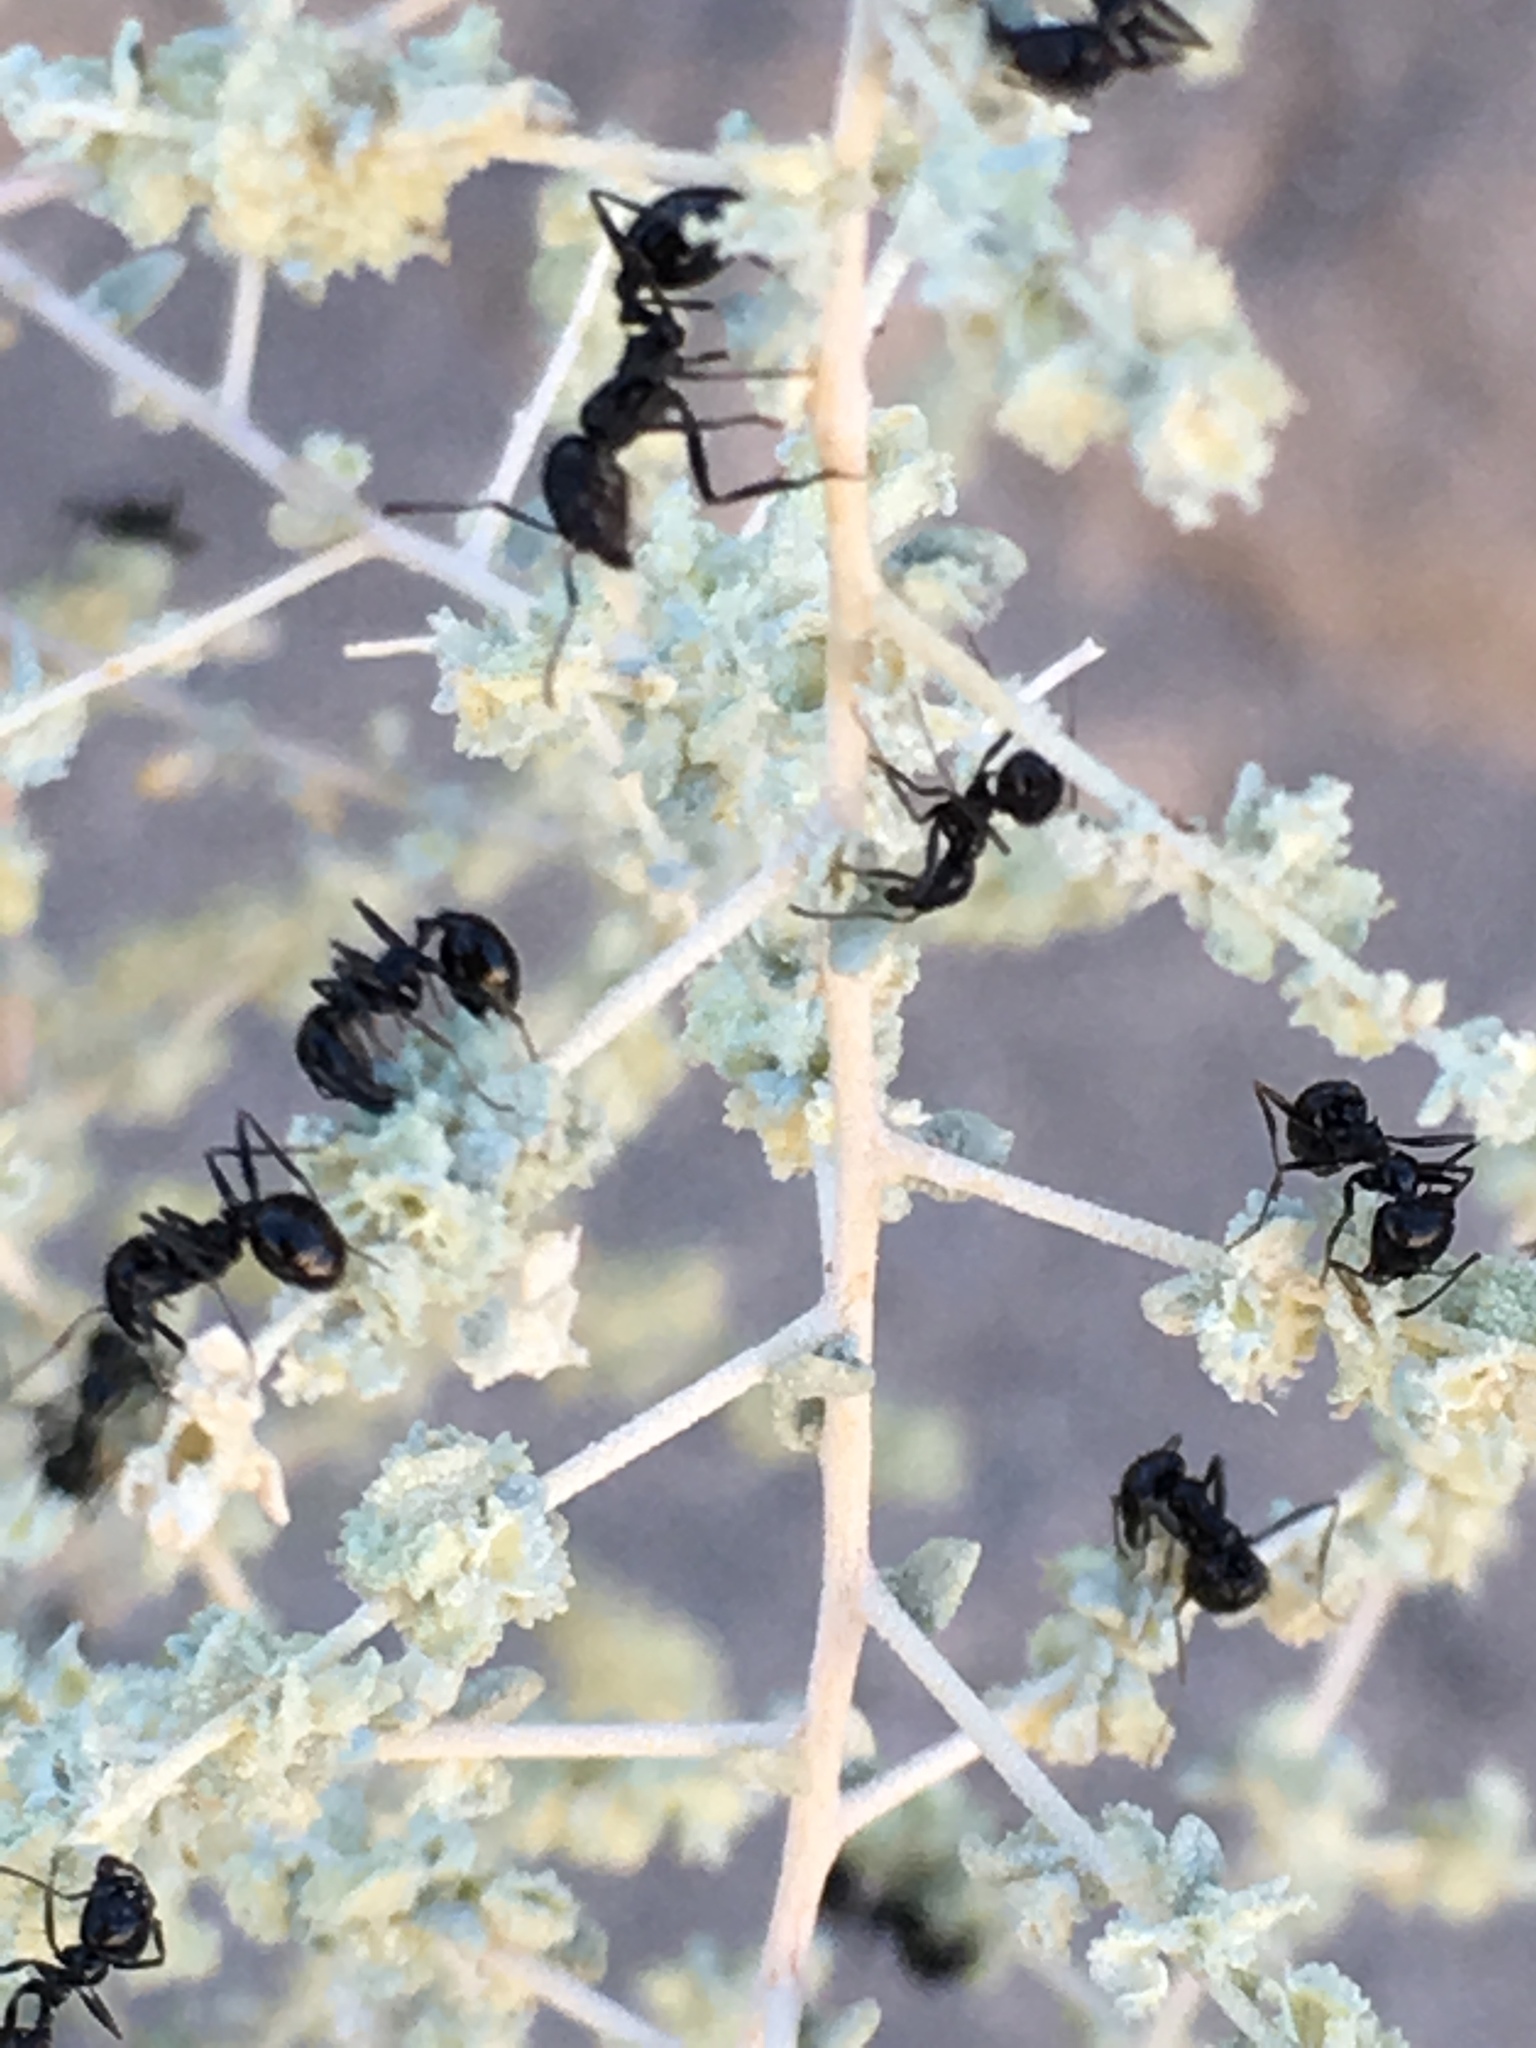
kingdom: Plantae
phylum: Tracheophyta
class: Magnoliopsida
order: Caryophyllales
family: Amaranthaceae
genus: Atriplex
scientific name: Atriplex polycarpa
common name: Desert saltbush
